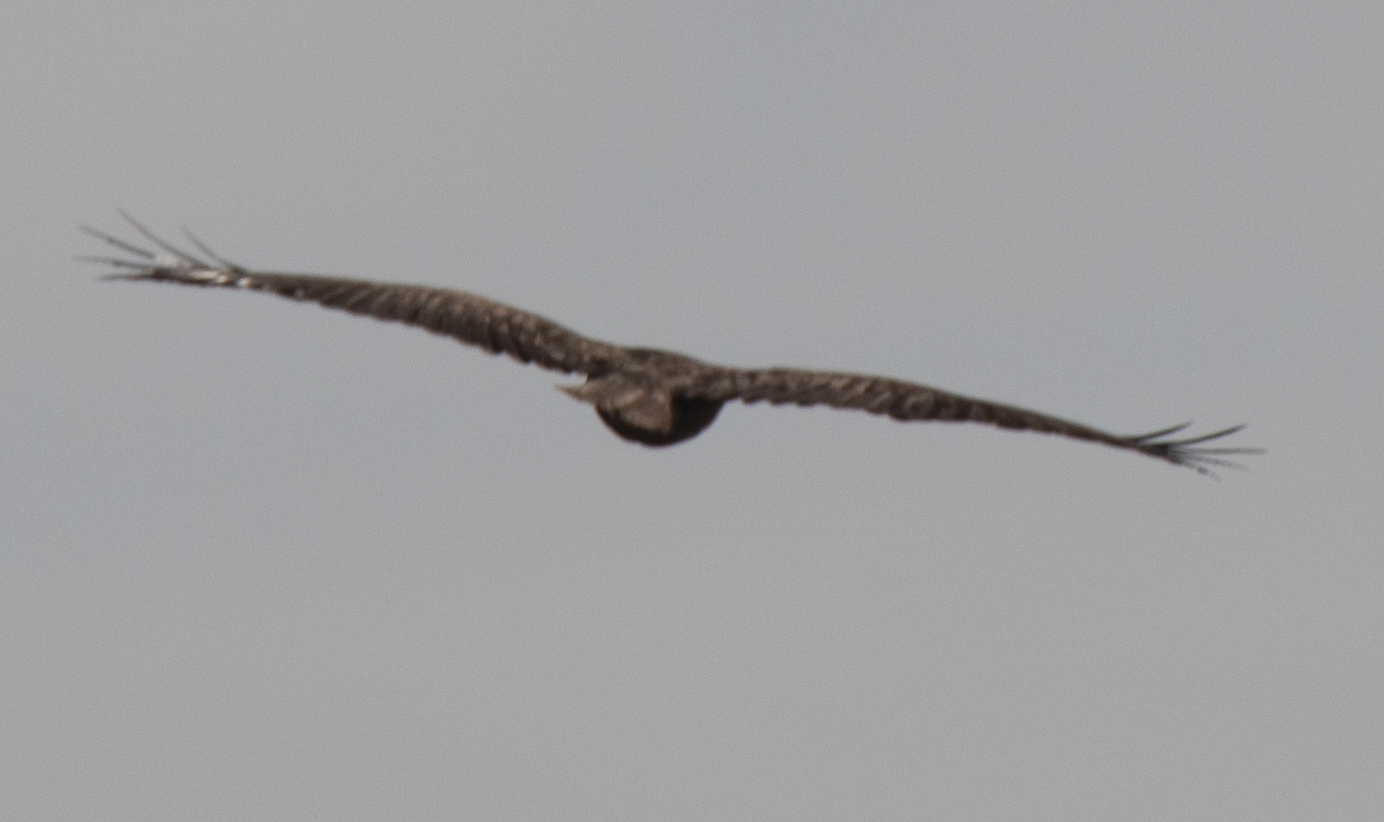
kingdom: Animalia
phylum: Chordata
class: Aves
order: Accipitriformes
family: Accipitridae
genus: Buteo
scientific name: Buteo buteo
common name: Common buzzard
